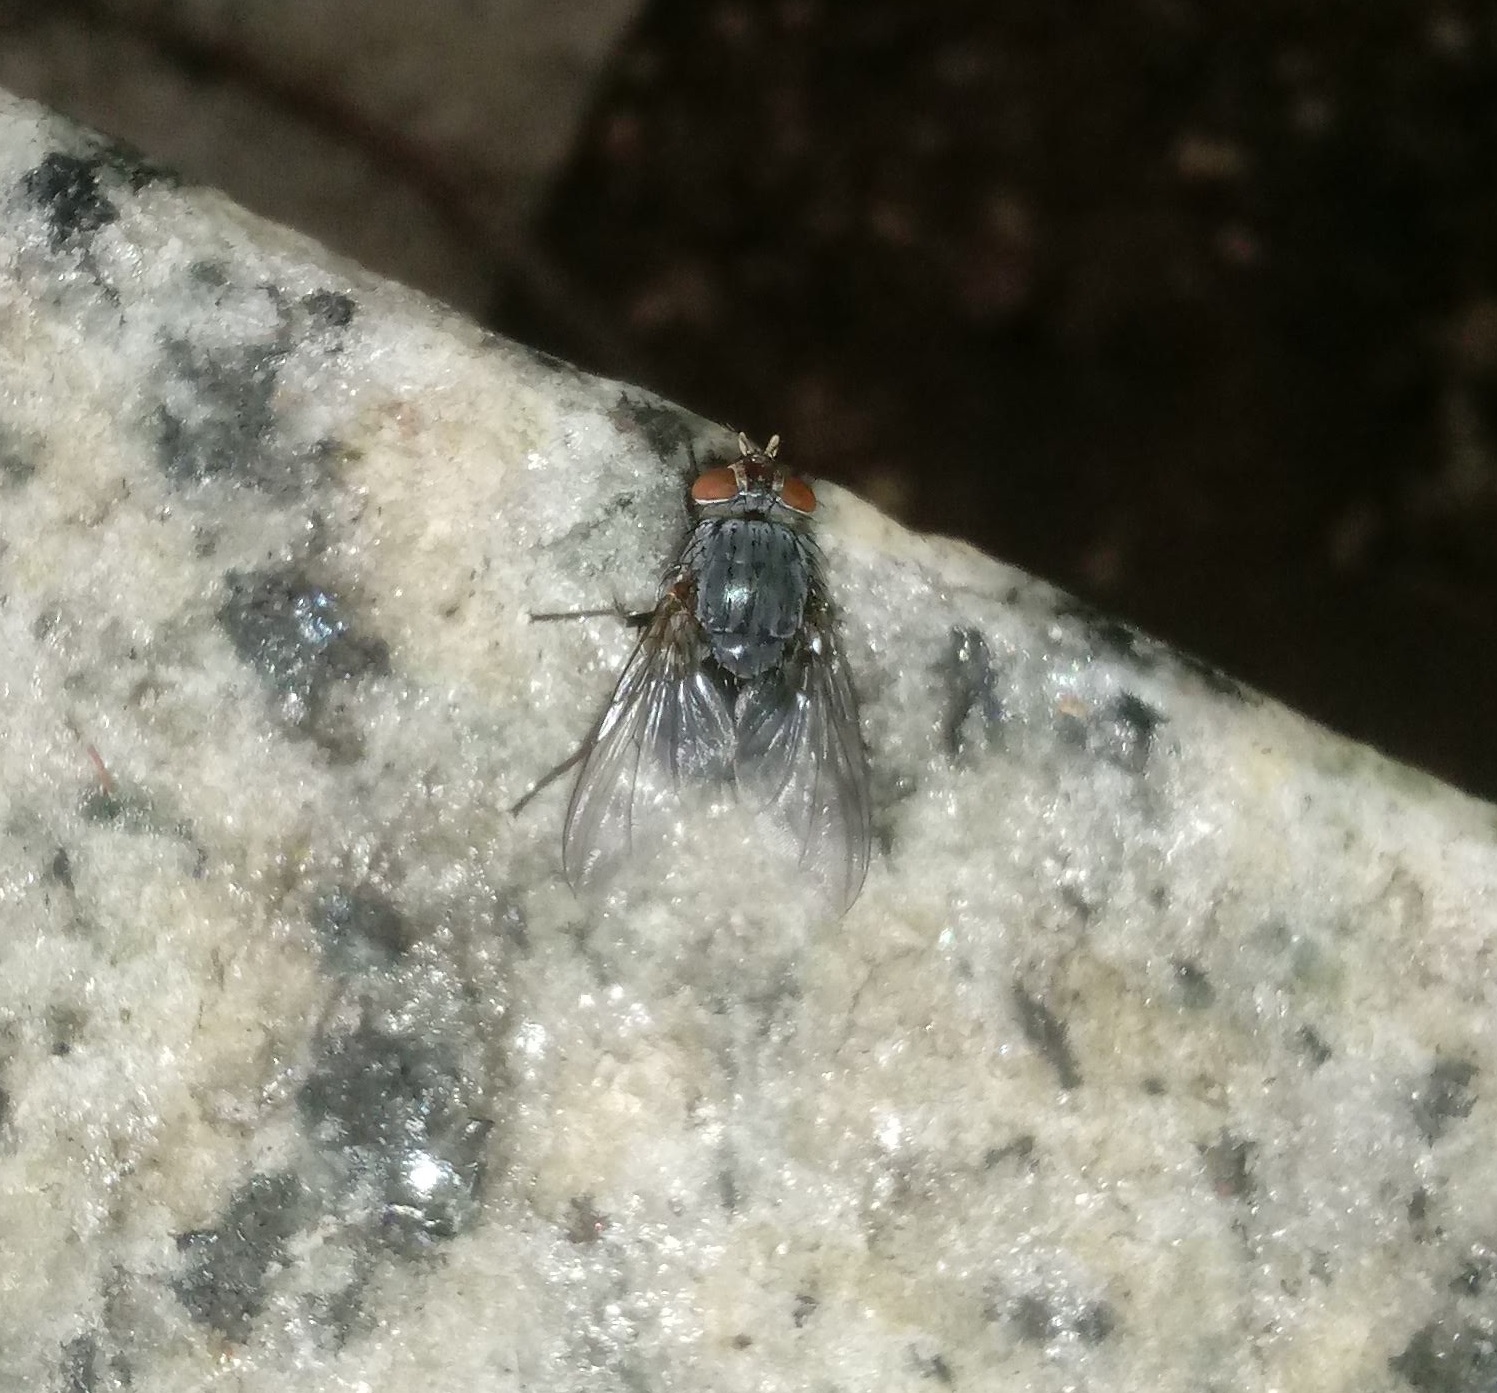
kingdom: Animalia
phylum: Arthropoda
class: Insecta
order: Diptera
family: Calliphoridae
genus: Calliphora
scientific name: Calliphora vicina
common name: Common blow flie
